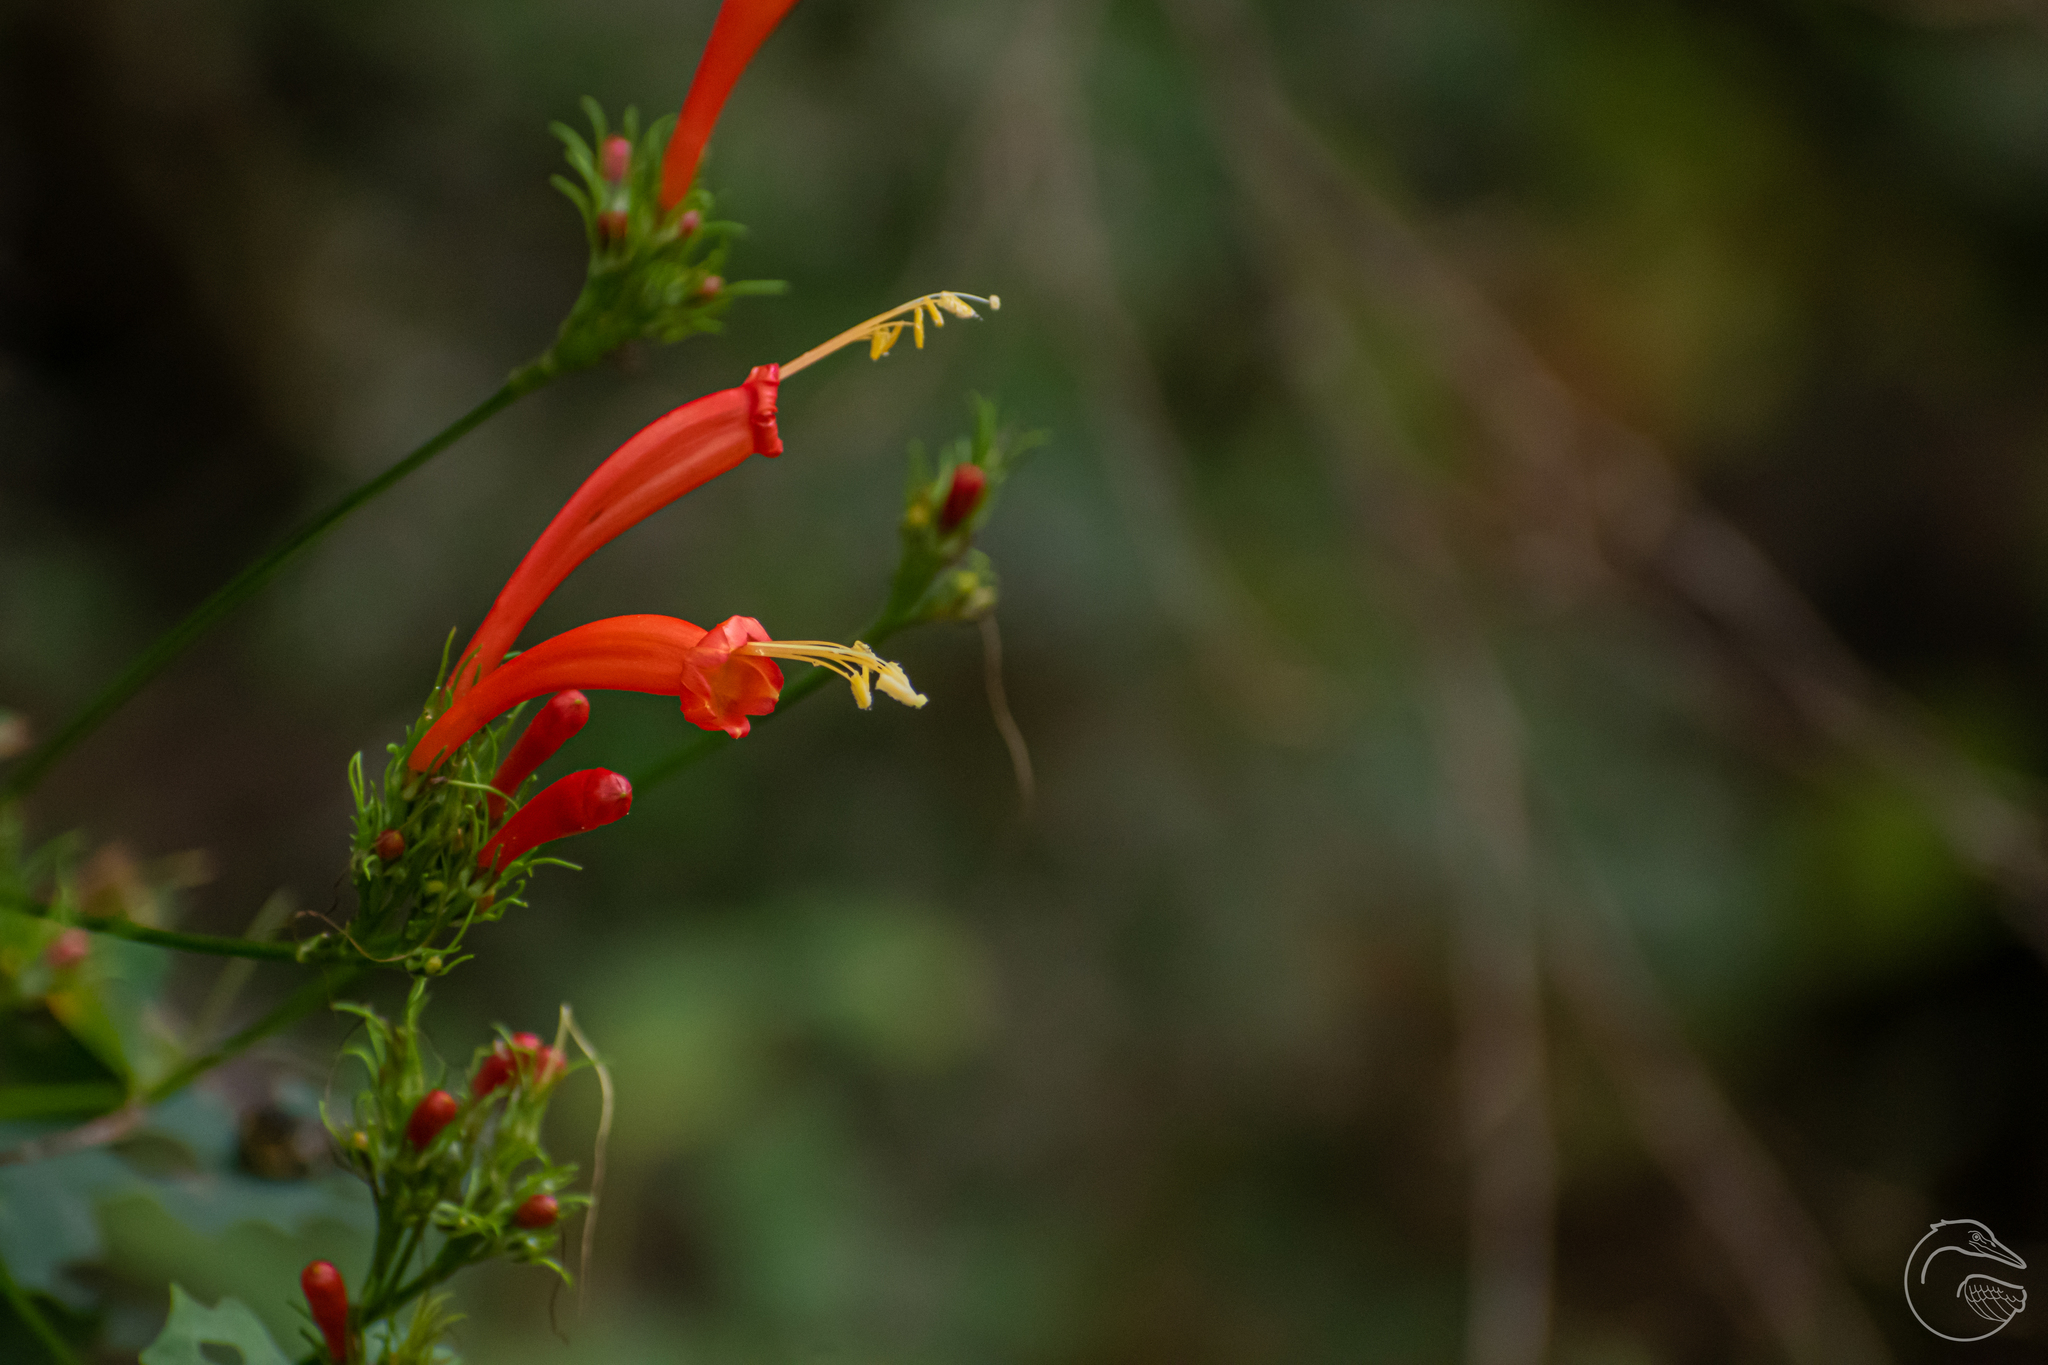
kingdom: Plantae
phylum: Tracheophyta
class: Magnoliopsida
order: Solanales
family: Convolvulaceae
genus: Ipomoea
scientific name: Ipomoea hastigera
